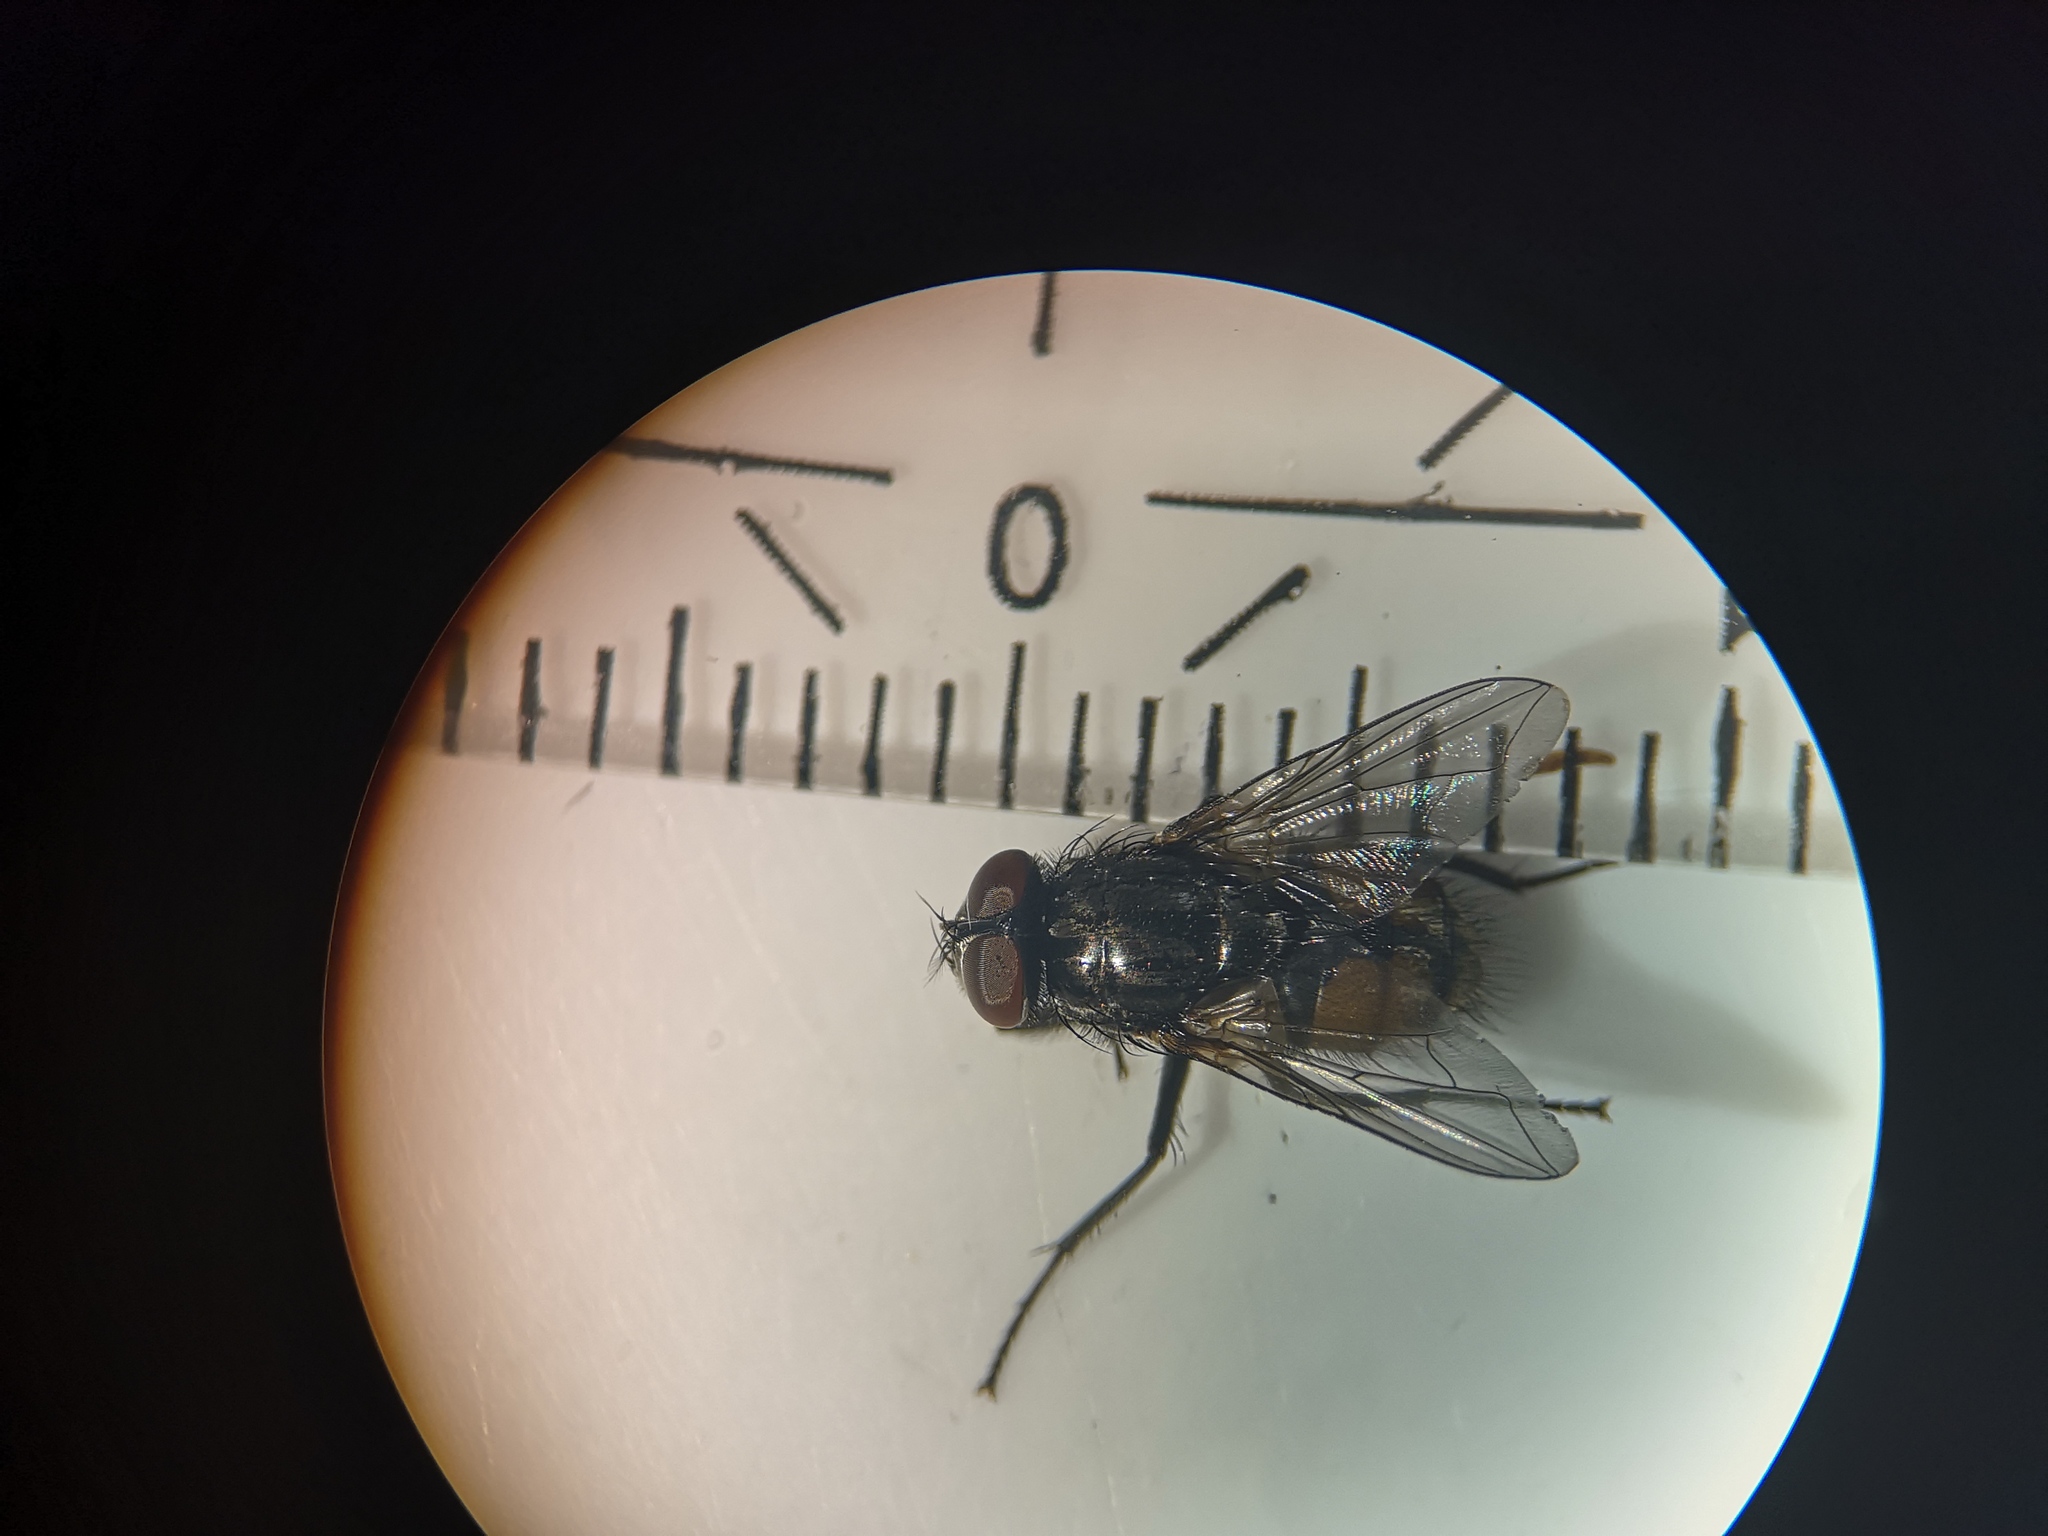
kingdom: Animalia
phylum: Arthropoda
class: Insecta
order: Diptera
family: Muscidae
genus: Musca
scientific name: Musca autumnalis
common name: Face fly
